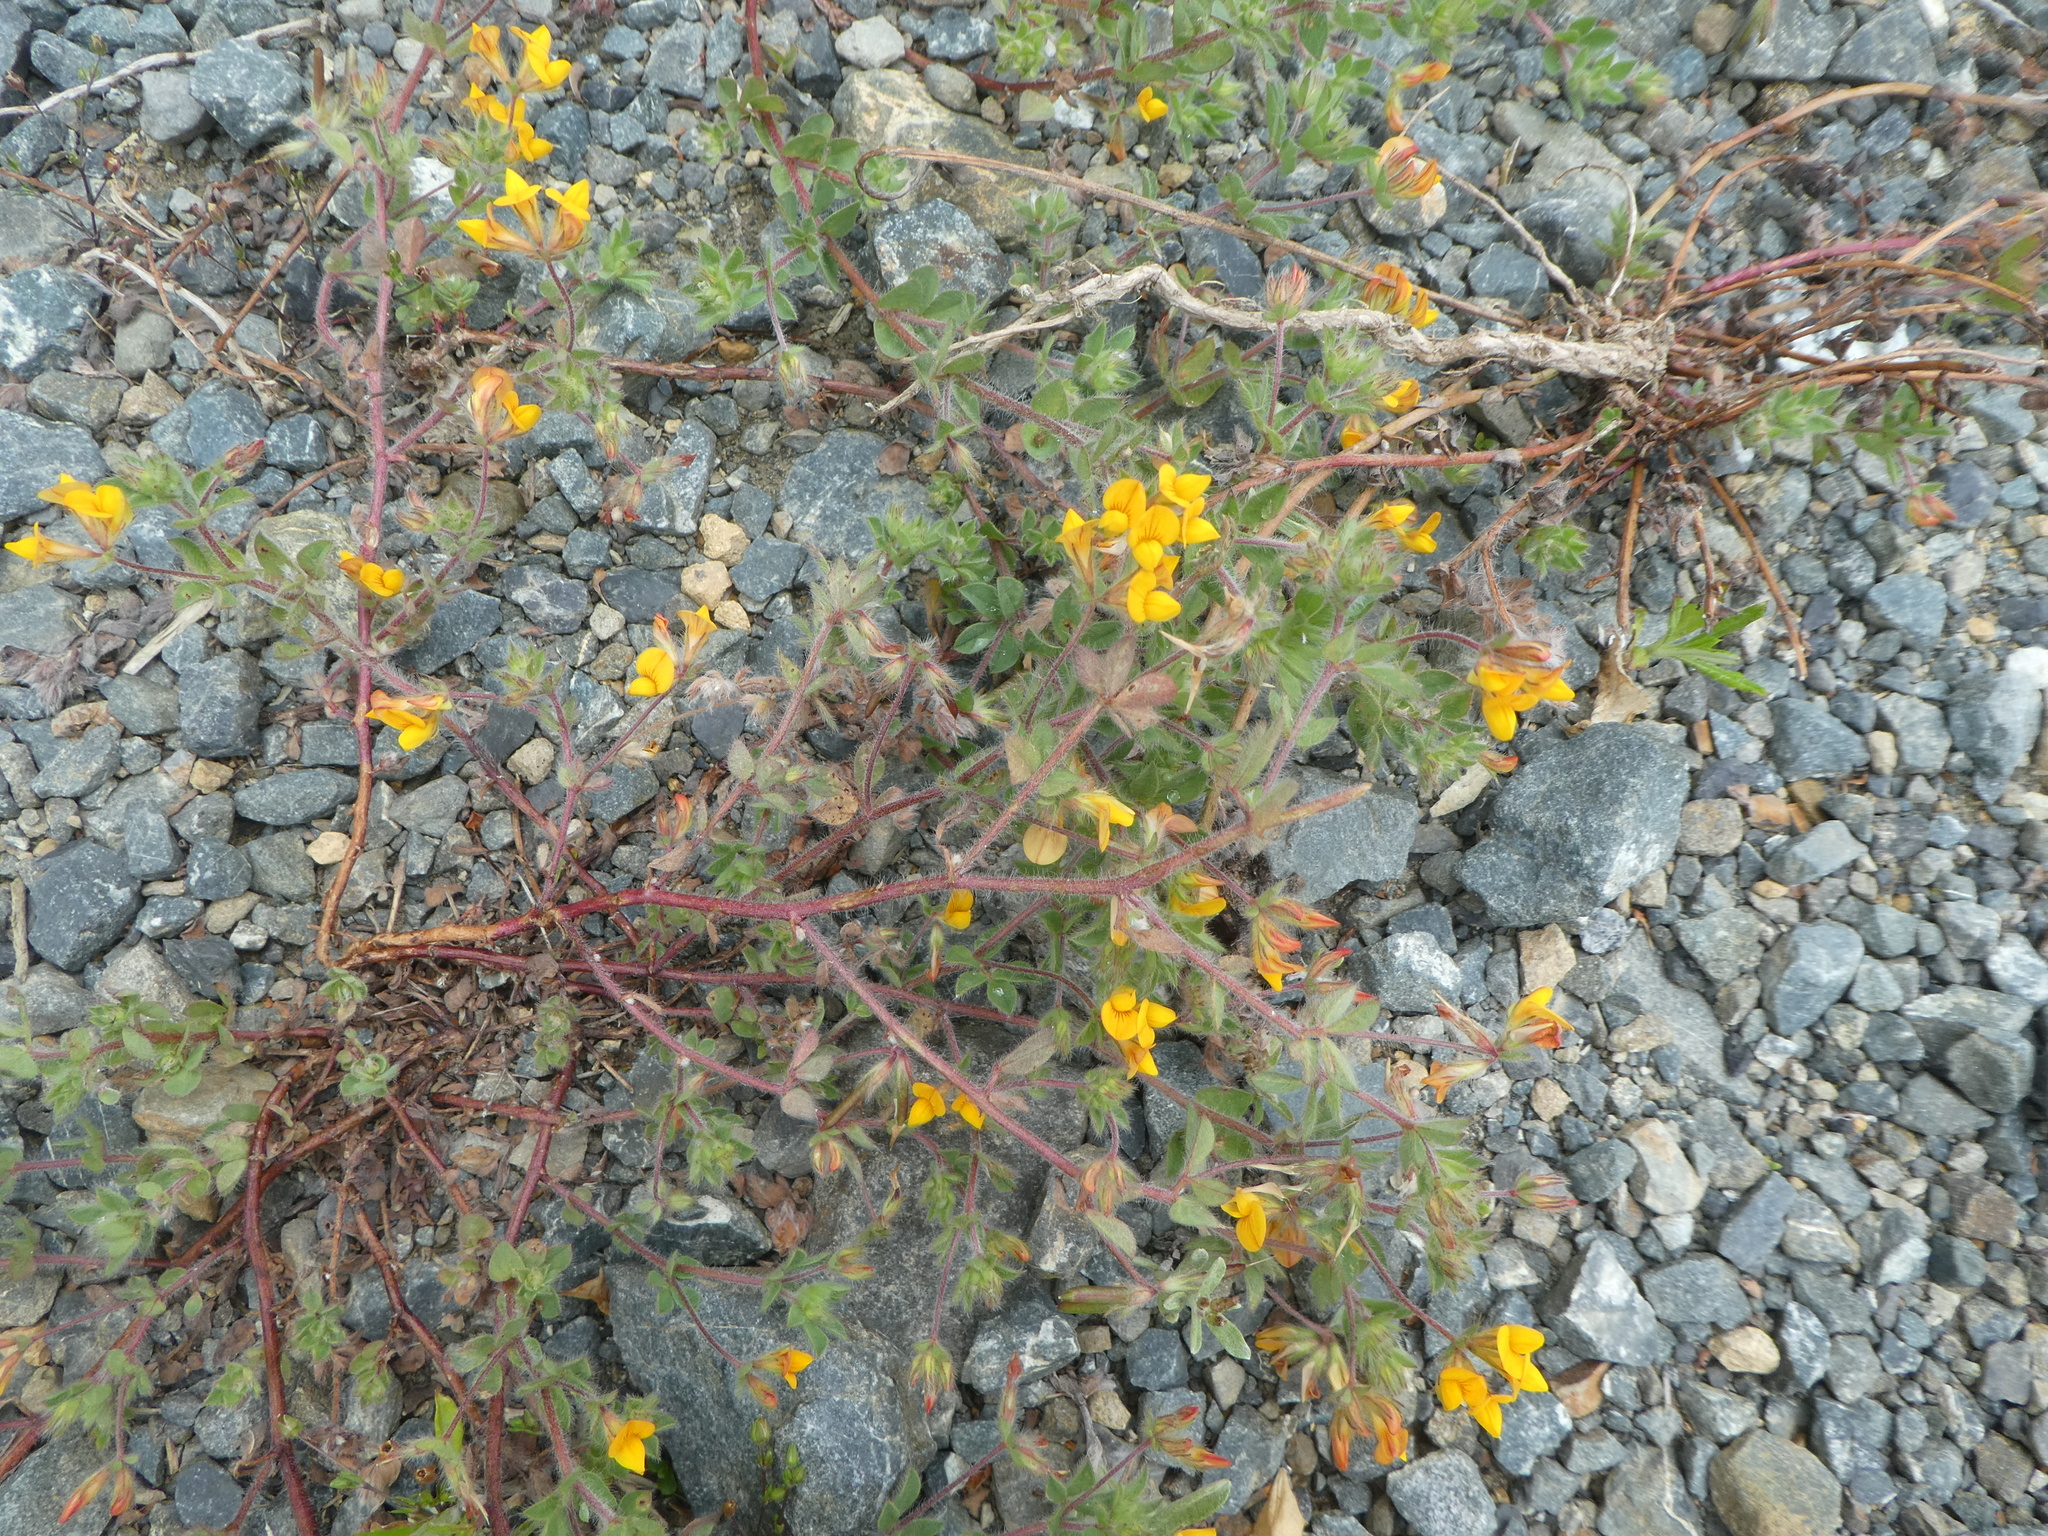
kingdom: Plantae
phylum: Tracheophyta
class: Magnoliopsida
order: Fabales
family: Fabaceae
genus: Lotus
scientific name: Lotus subbiflorus
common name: Hairy bird's-foot trefoil
